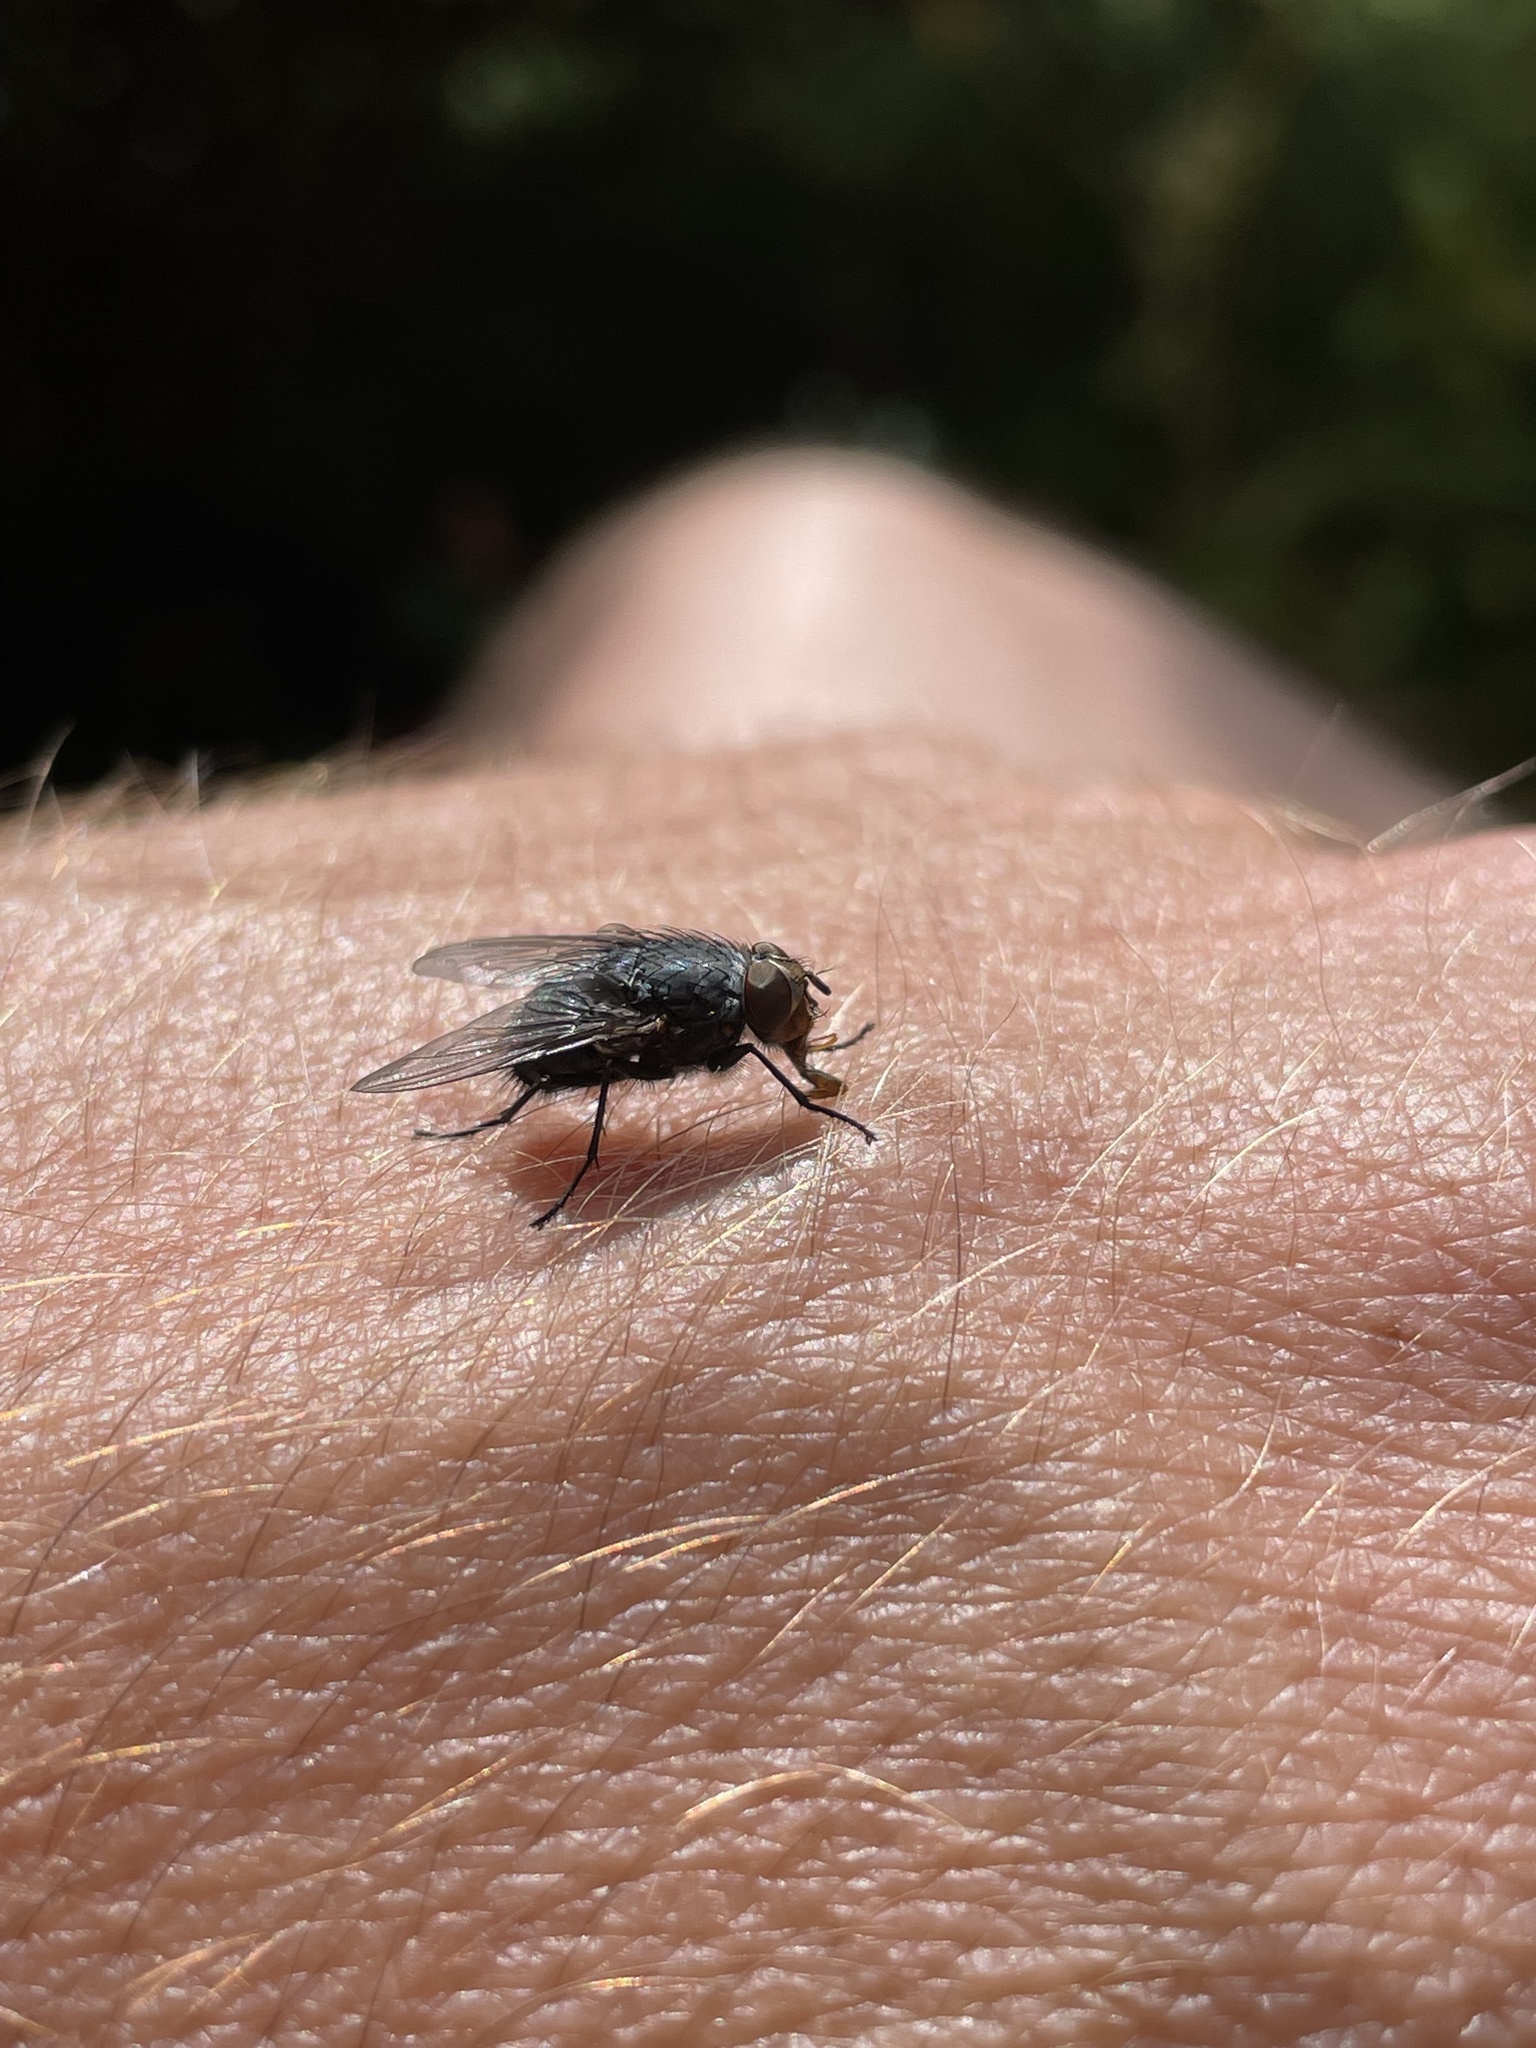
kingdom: Animalia
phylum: Arthropoda
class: Insecta
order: Diptera
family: Calliphoridae
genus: Calliphora
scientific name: Calliphora vicina
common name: Common blow flie
